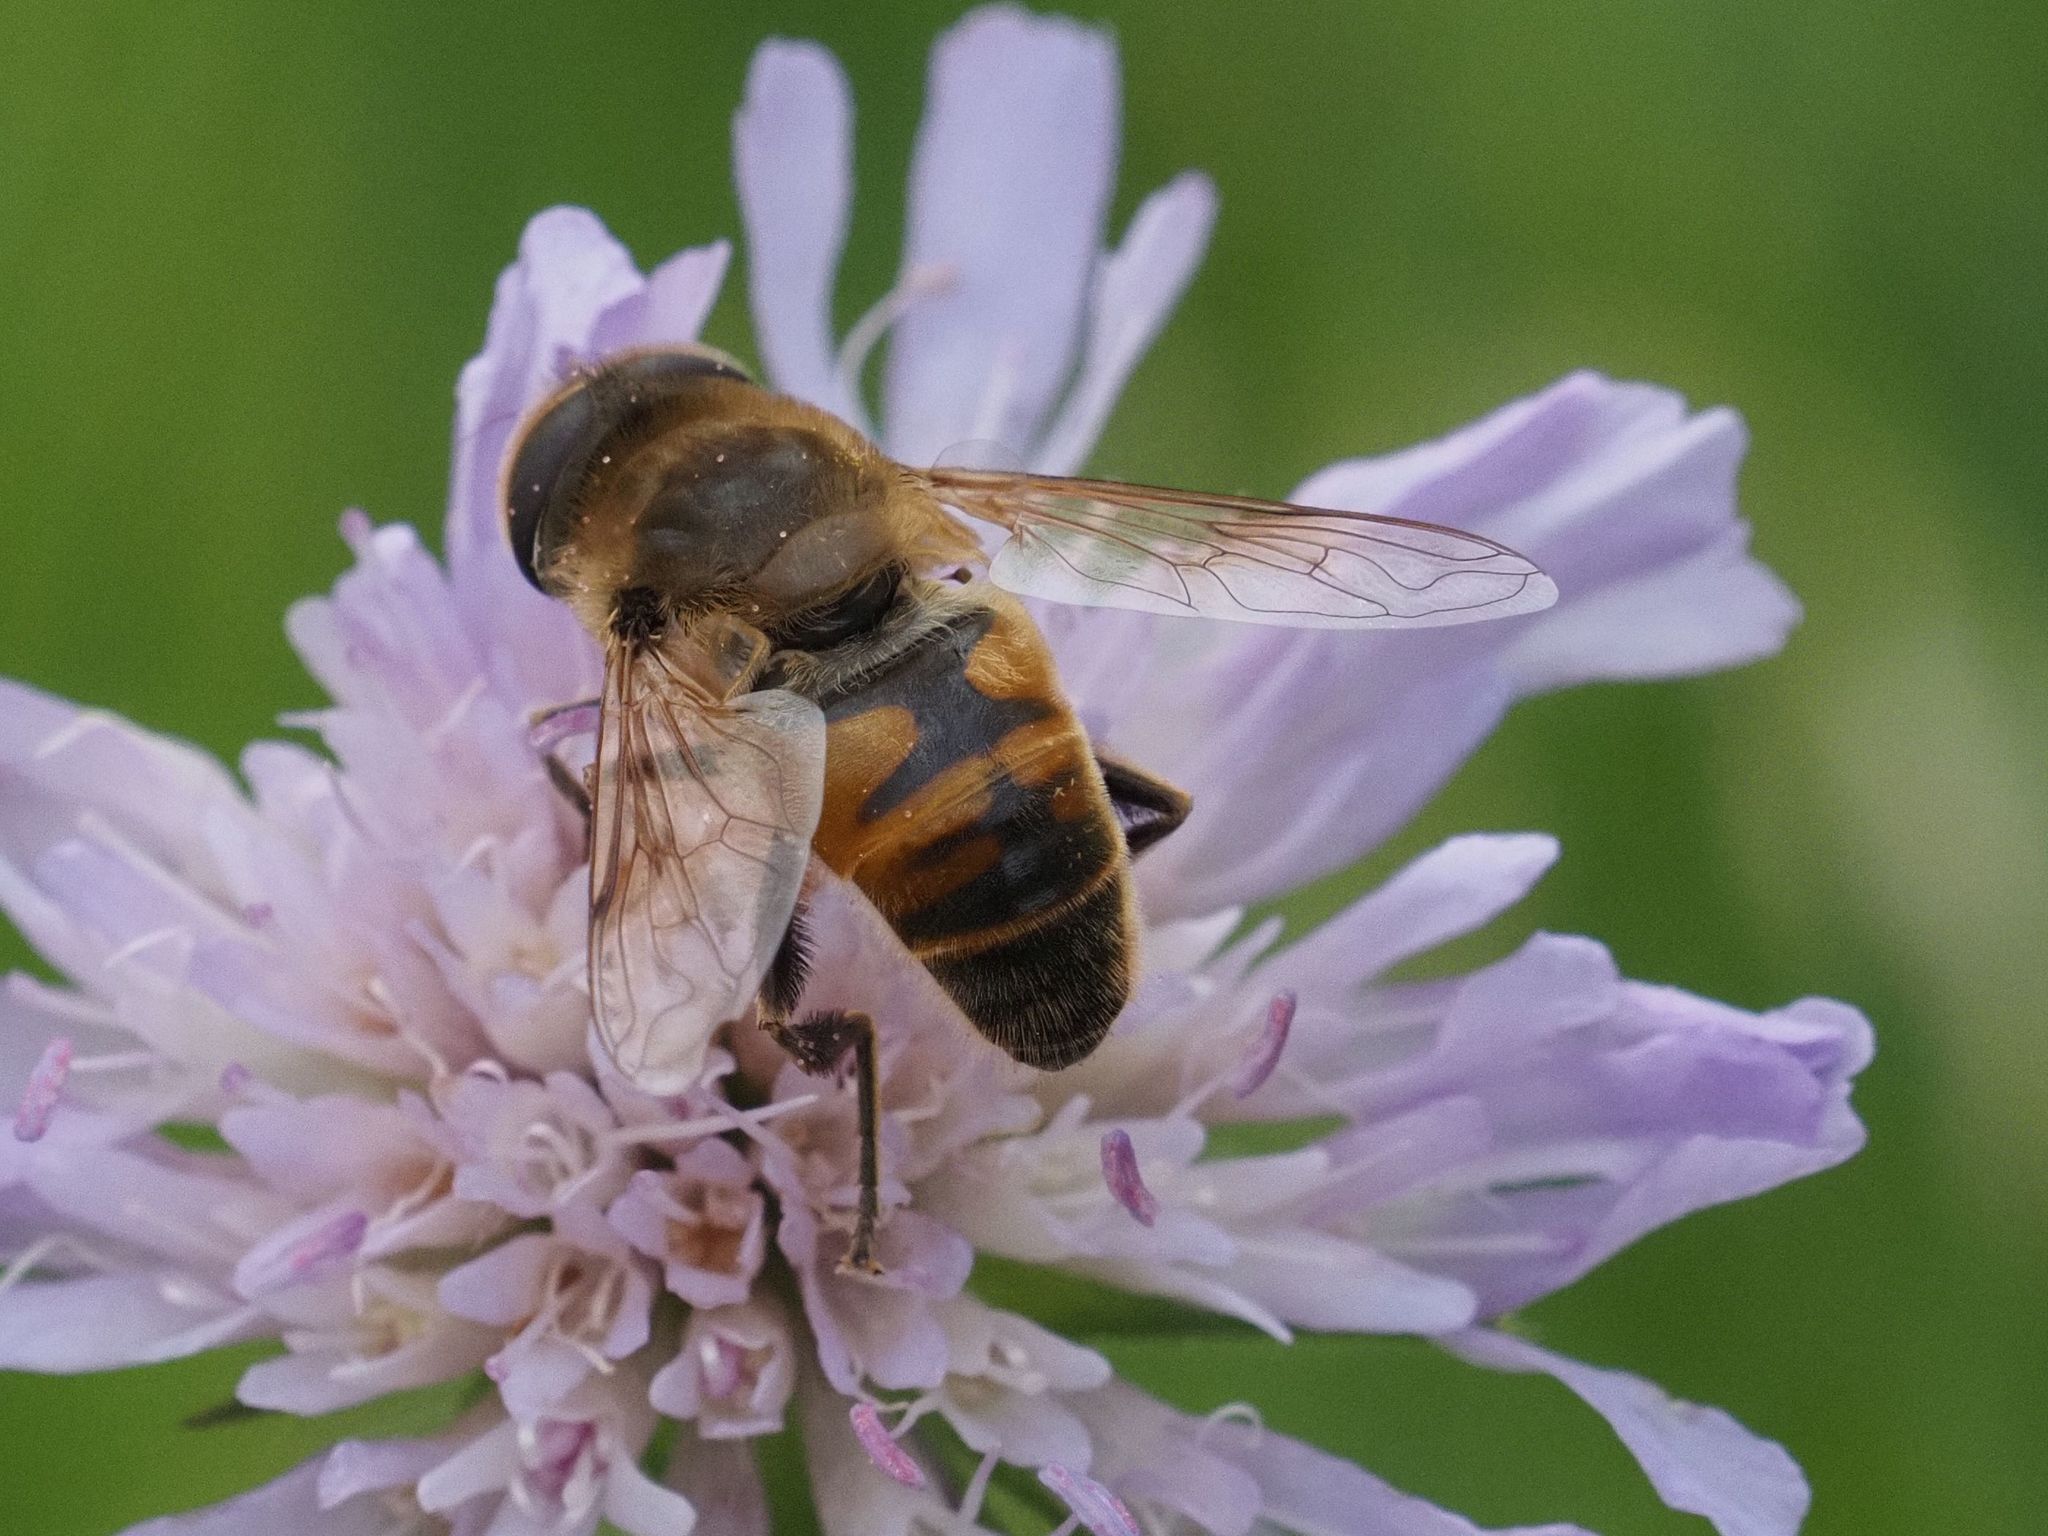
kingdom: Animalia
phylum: Arthropoda
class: Insecta
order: Diptera
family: Syrphidae
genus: Eristalis
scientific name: Eristalis tenax
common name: Drone fly
